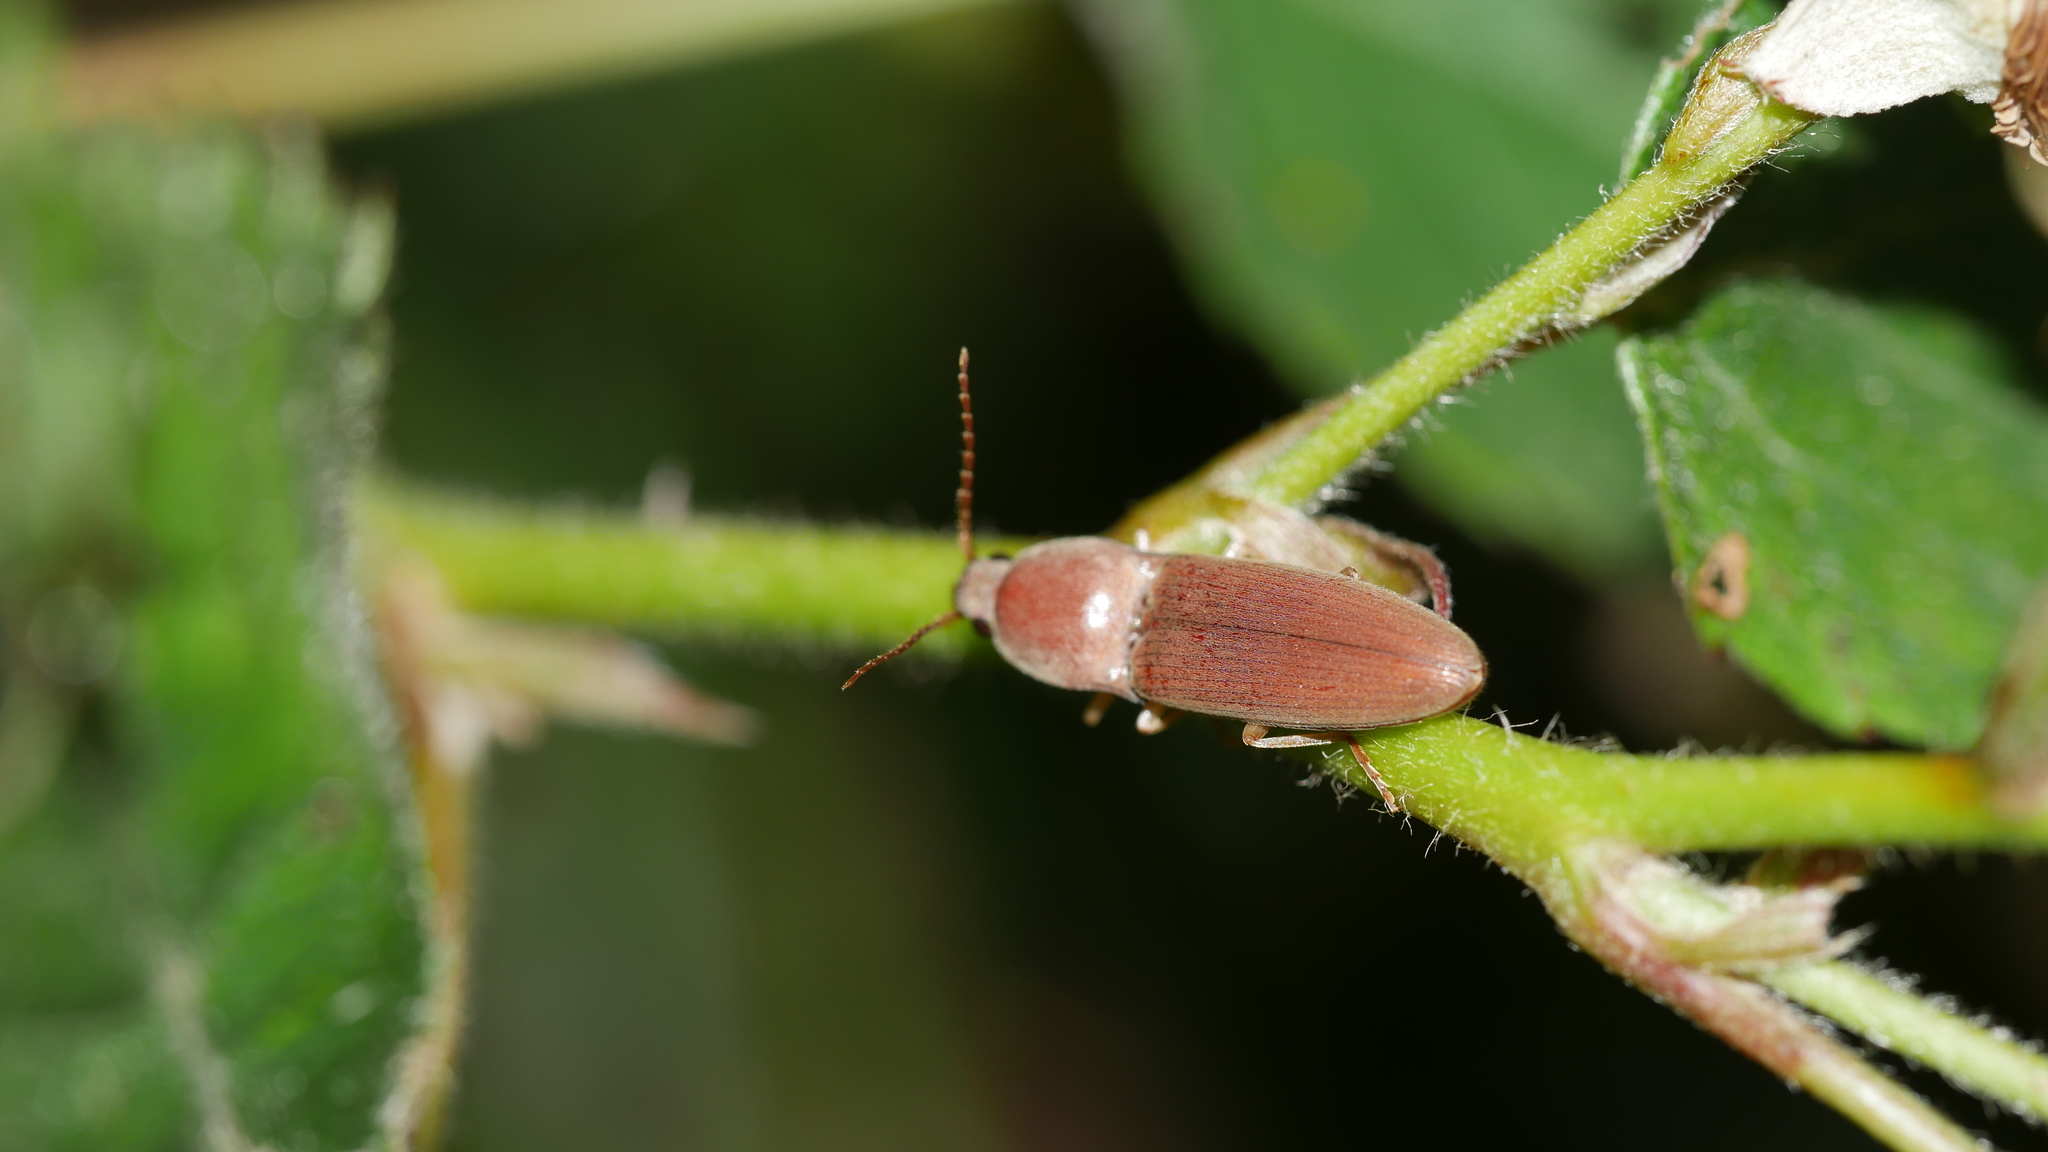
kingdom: Animalia
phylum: Arthropoda
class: Insecta
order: Coleoptera
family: Elateridae
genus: Monocrepidius
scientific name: Monocrepidius lividus
